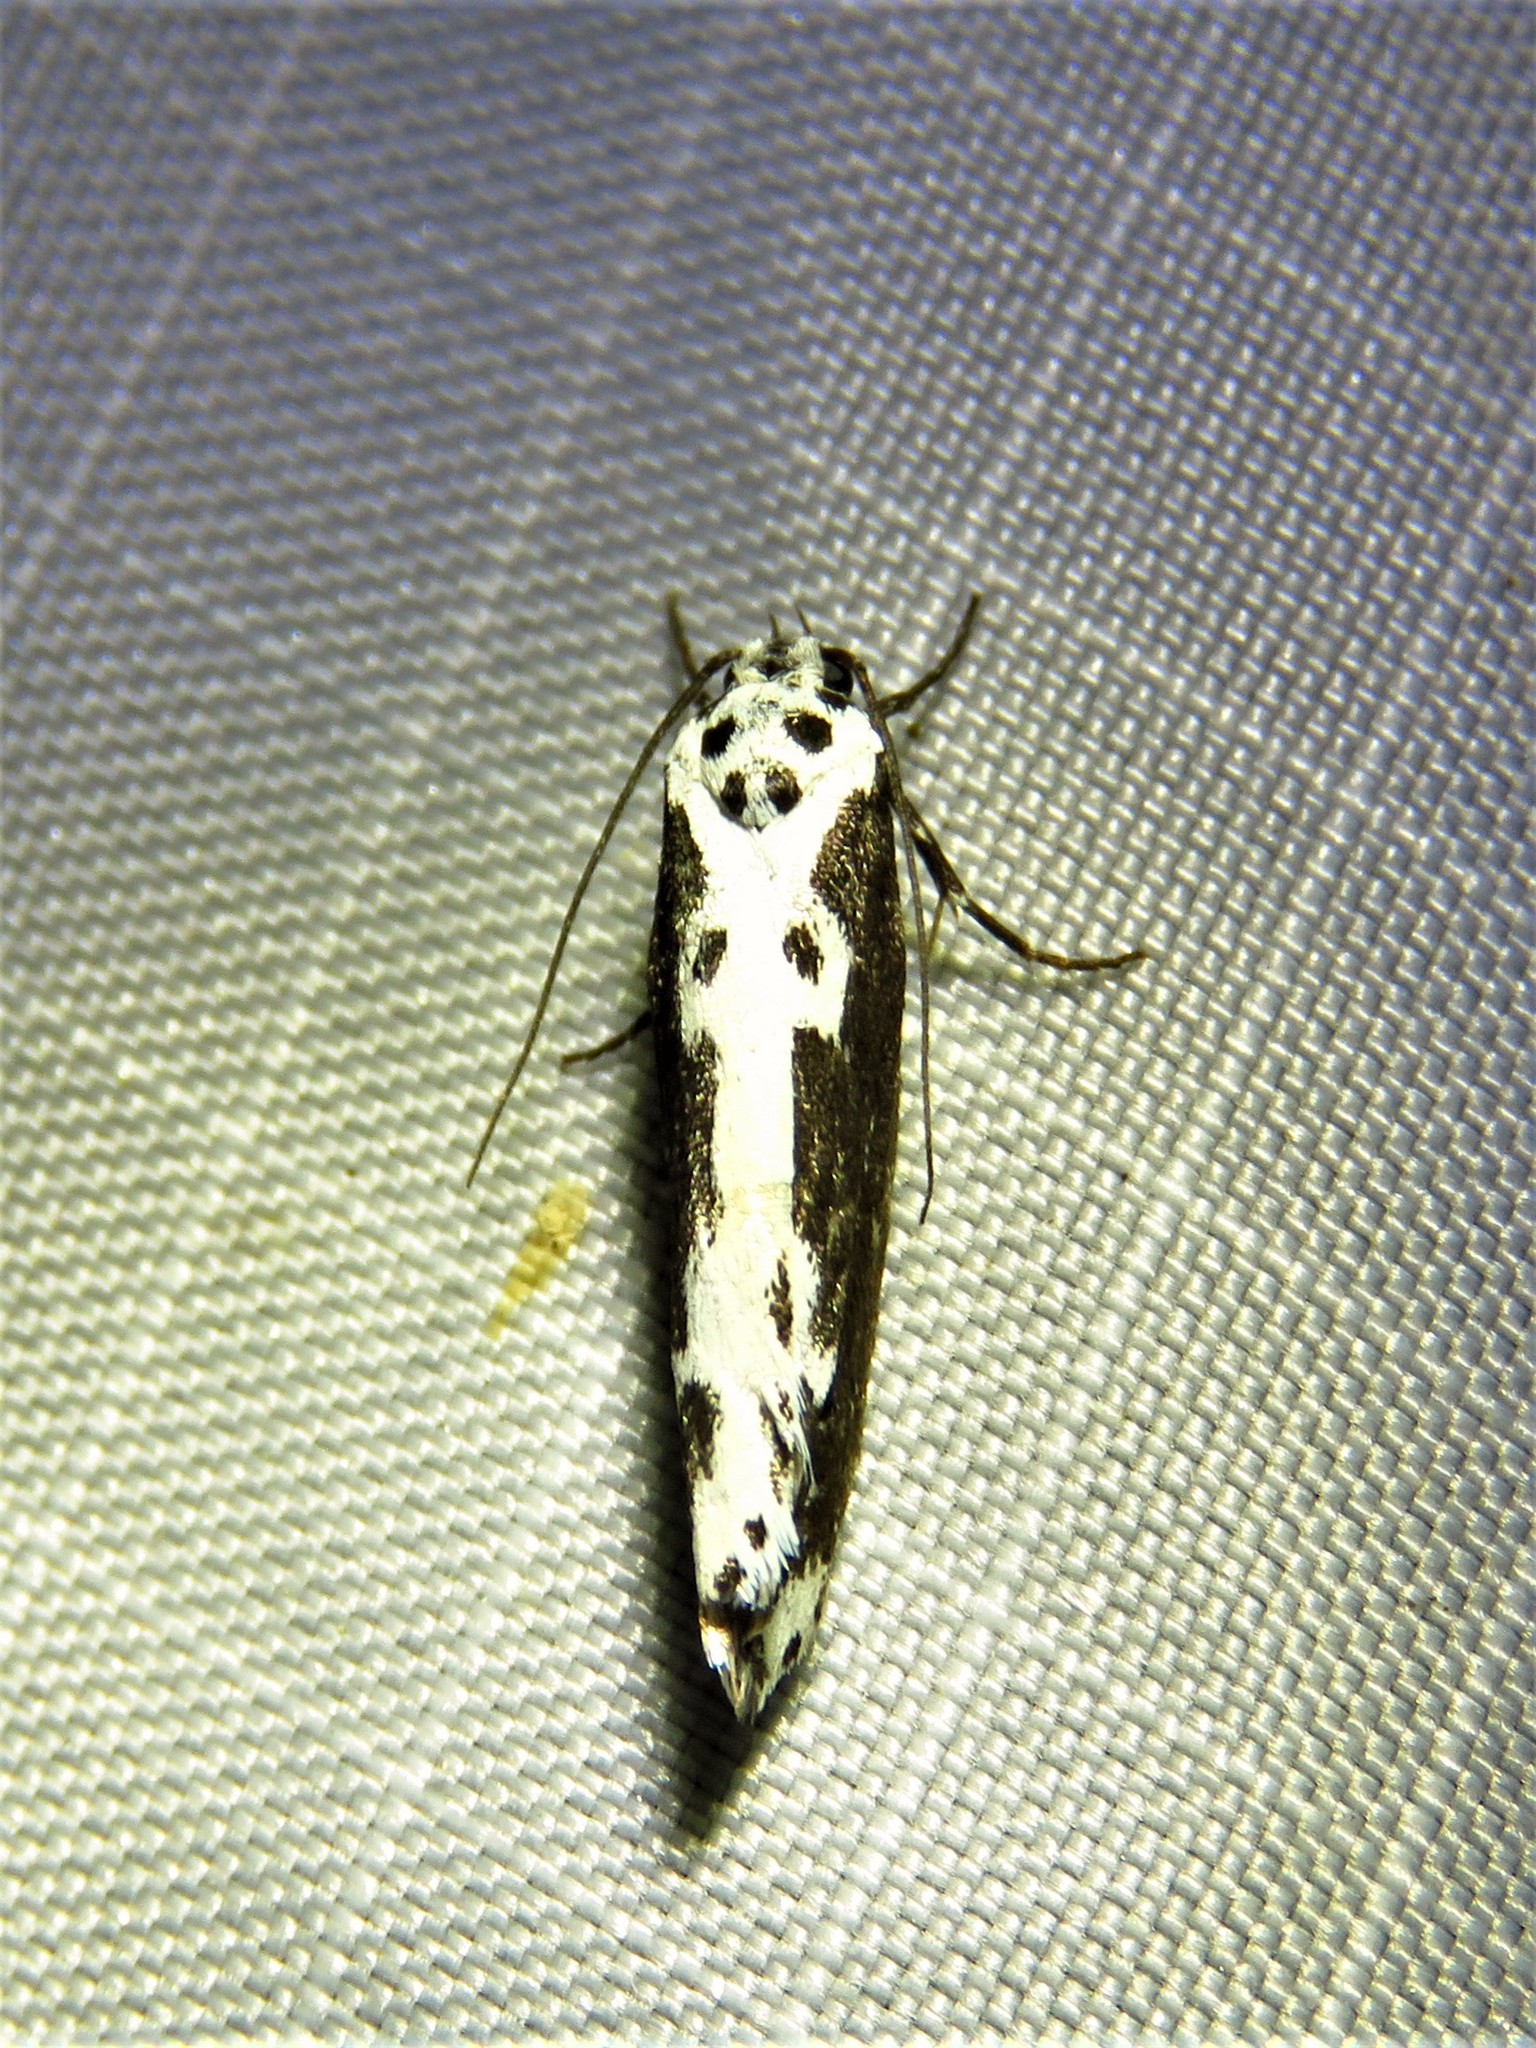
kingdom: Animalia
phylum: Arthropoda
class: Insecta
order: Lepidoptera
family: Ethmiidae
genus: Ethmia
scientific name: Ethmia semilugens
